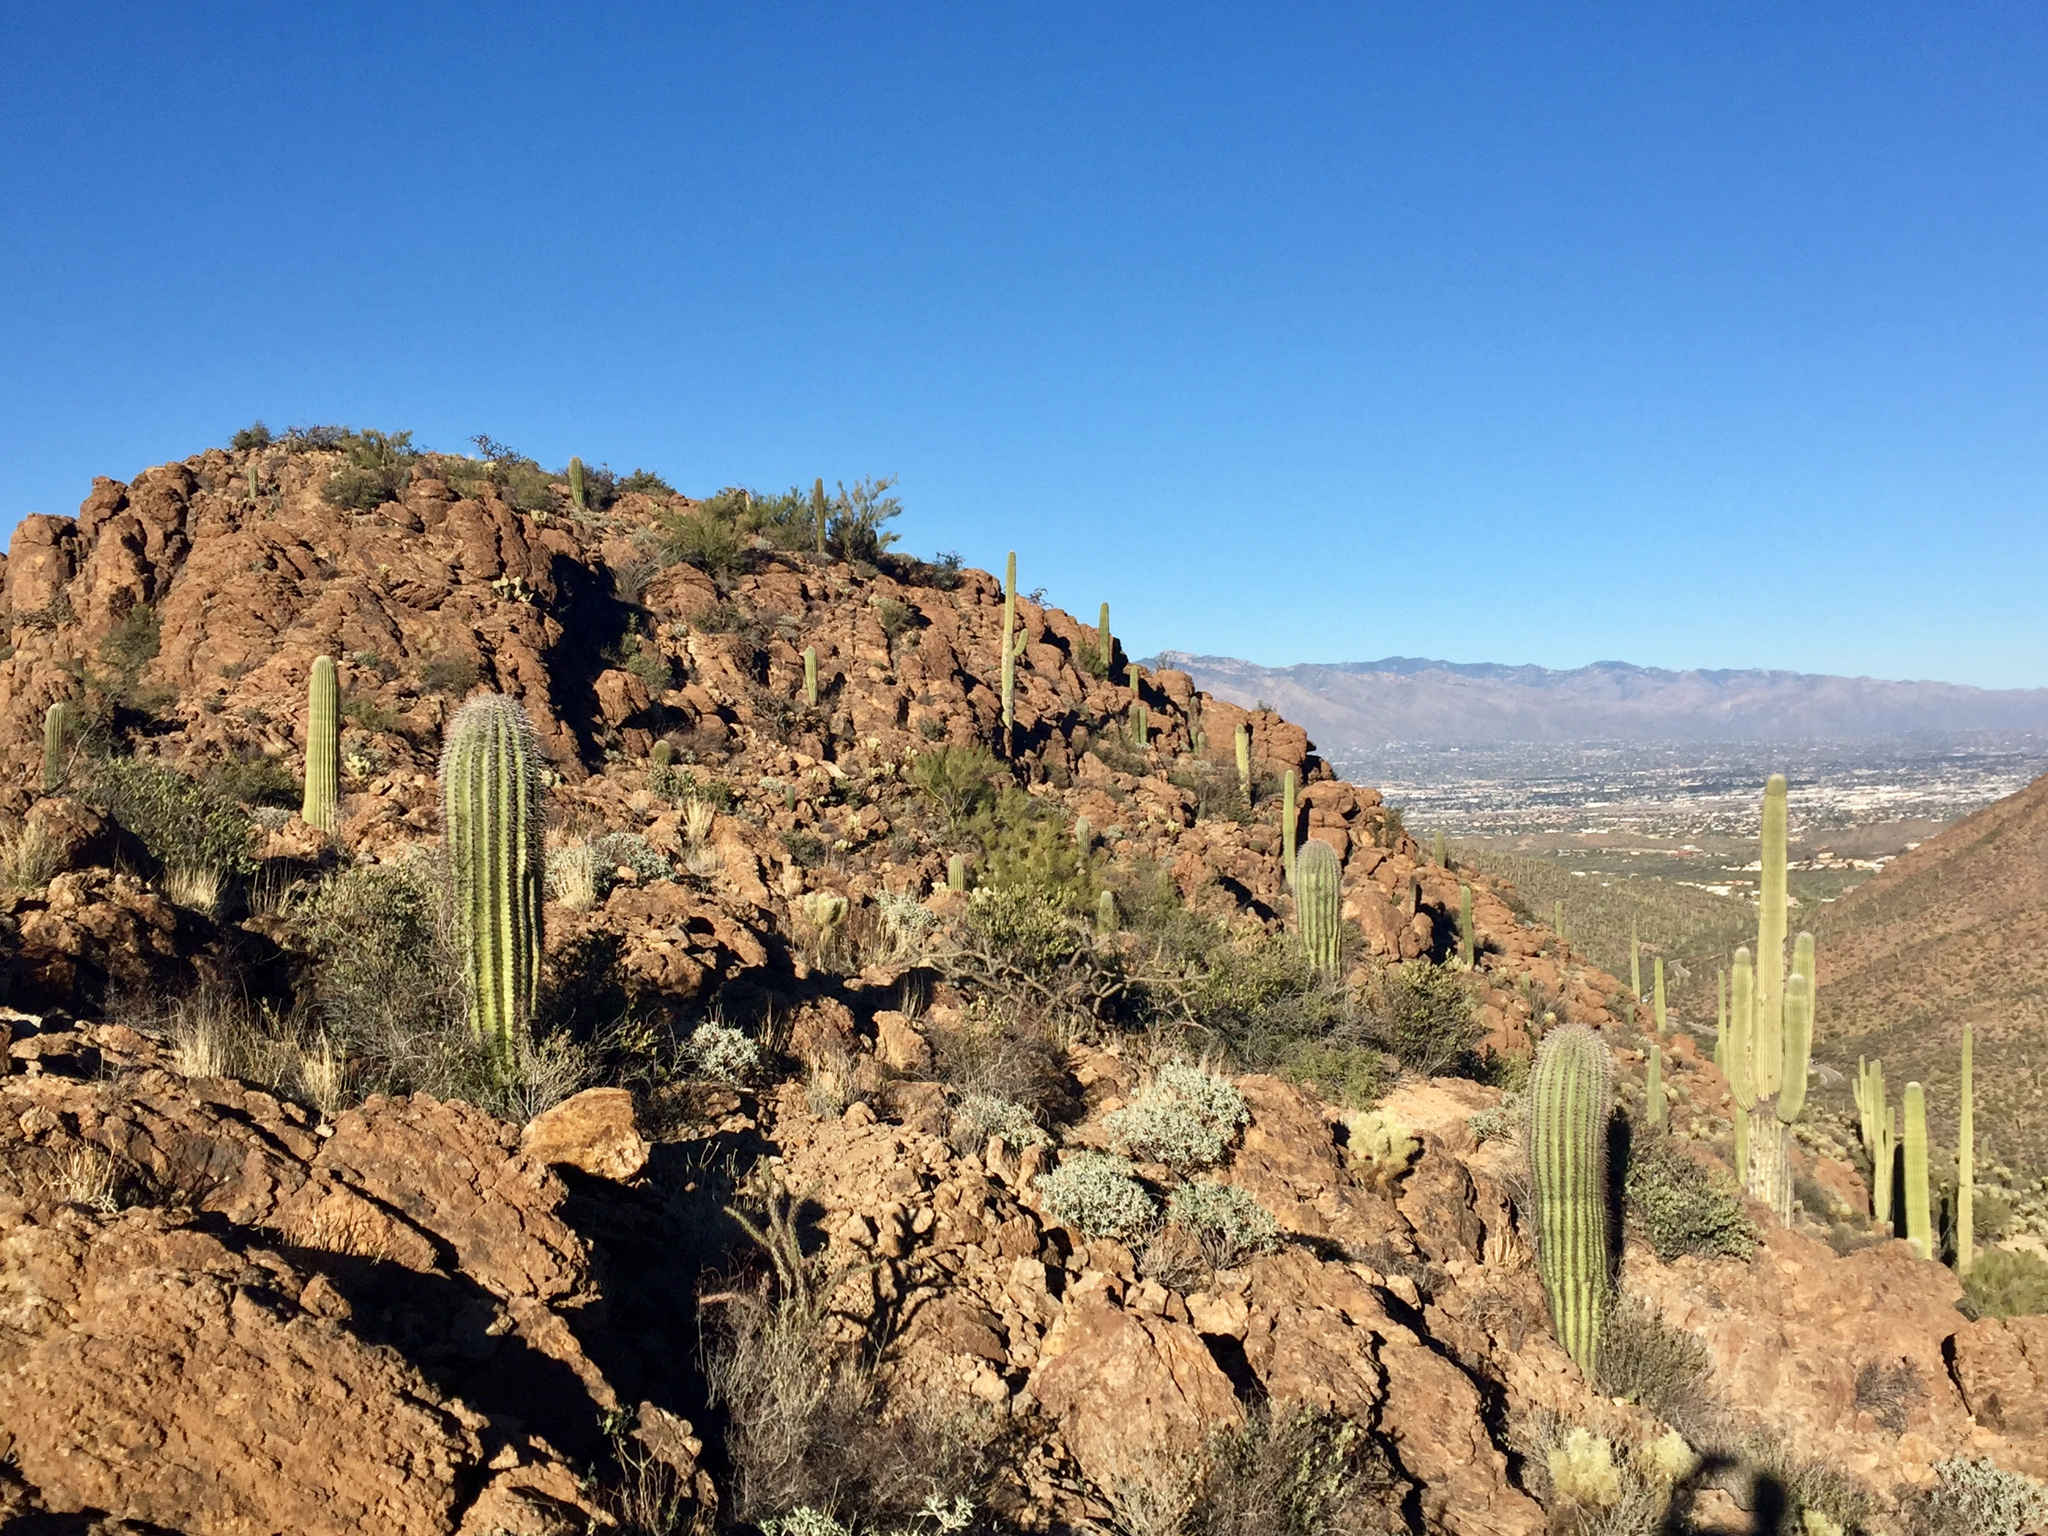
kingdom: Plantae
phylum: Tracheophyta
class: Magnoliopsida
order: Caryophyllales
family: Cactaceae
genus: Carnegiea
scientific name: Carnegiea gigantea
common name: Saguaro
